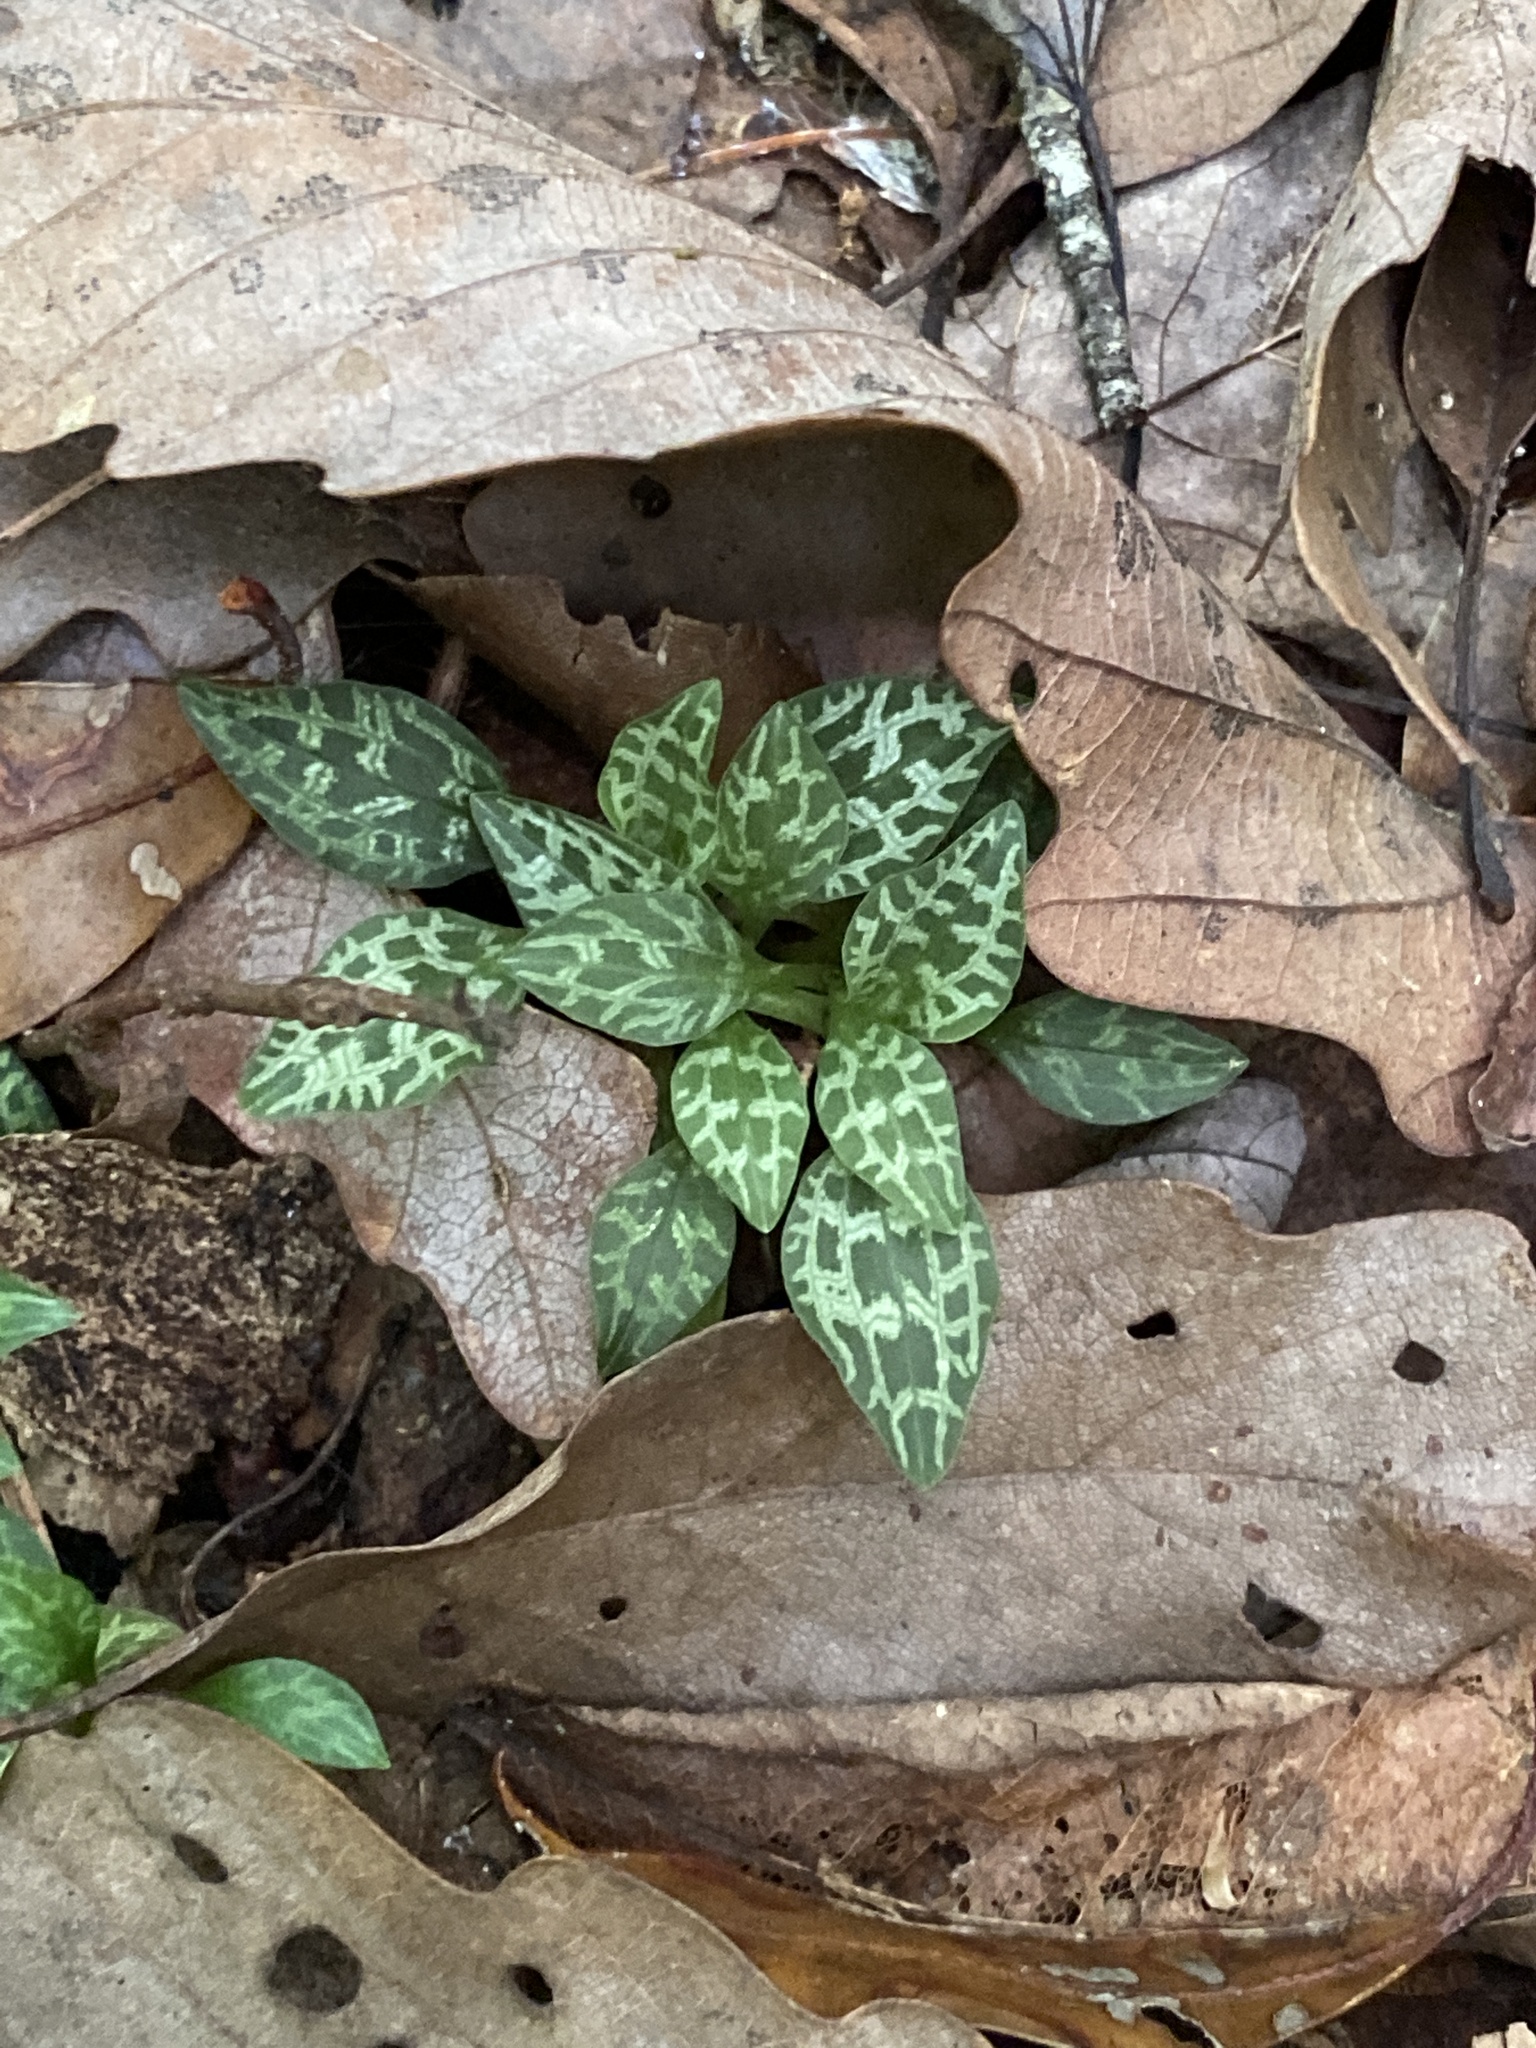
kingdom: Plantae
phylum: Tracheophyta
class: Liliopsida
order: Asparagales
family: Orchidaceae
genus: Goodyera
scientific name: Goodyera repens
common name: Creeping lady's-tresses
